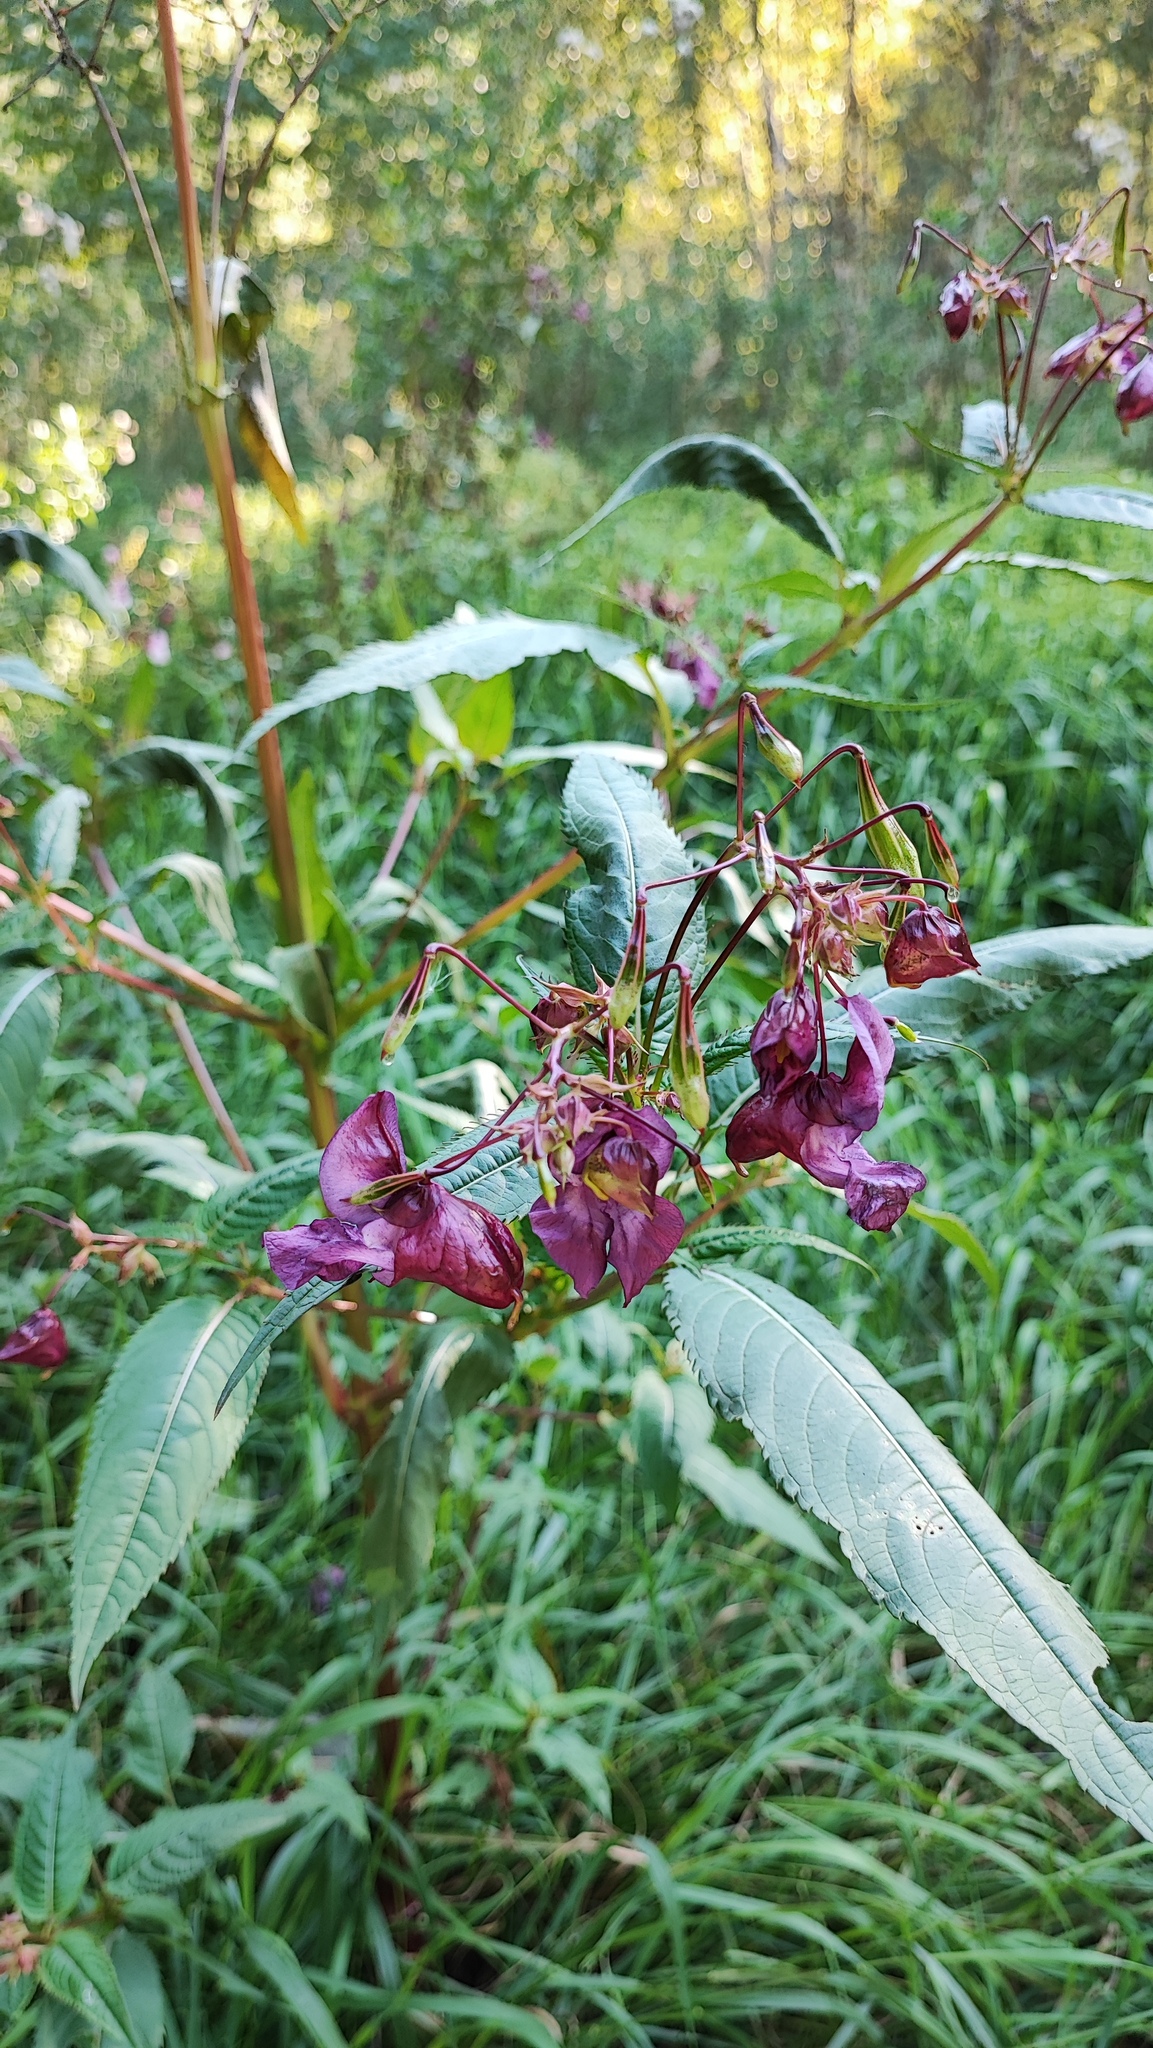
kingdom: Plantae
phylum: Tracheophyta
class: Magnoliopsida
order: Ericales
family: Balsaminaceae
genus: Impatiens
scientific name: Impatiens glandulifera
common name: Himalayan balsam
